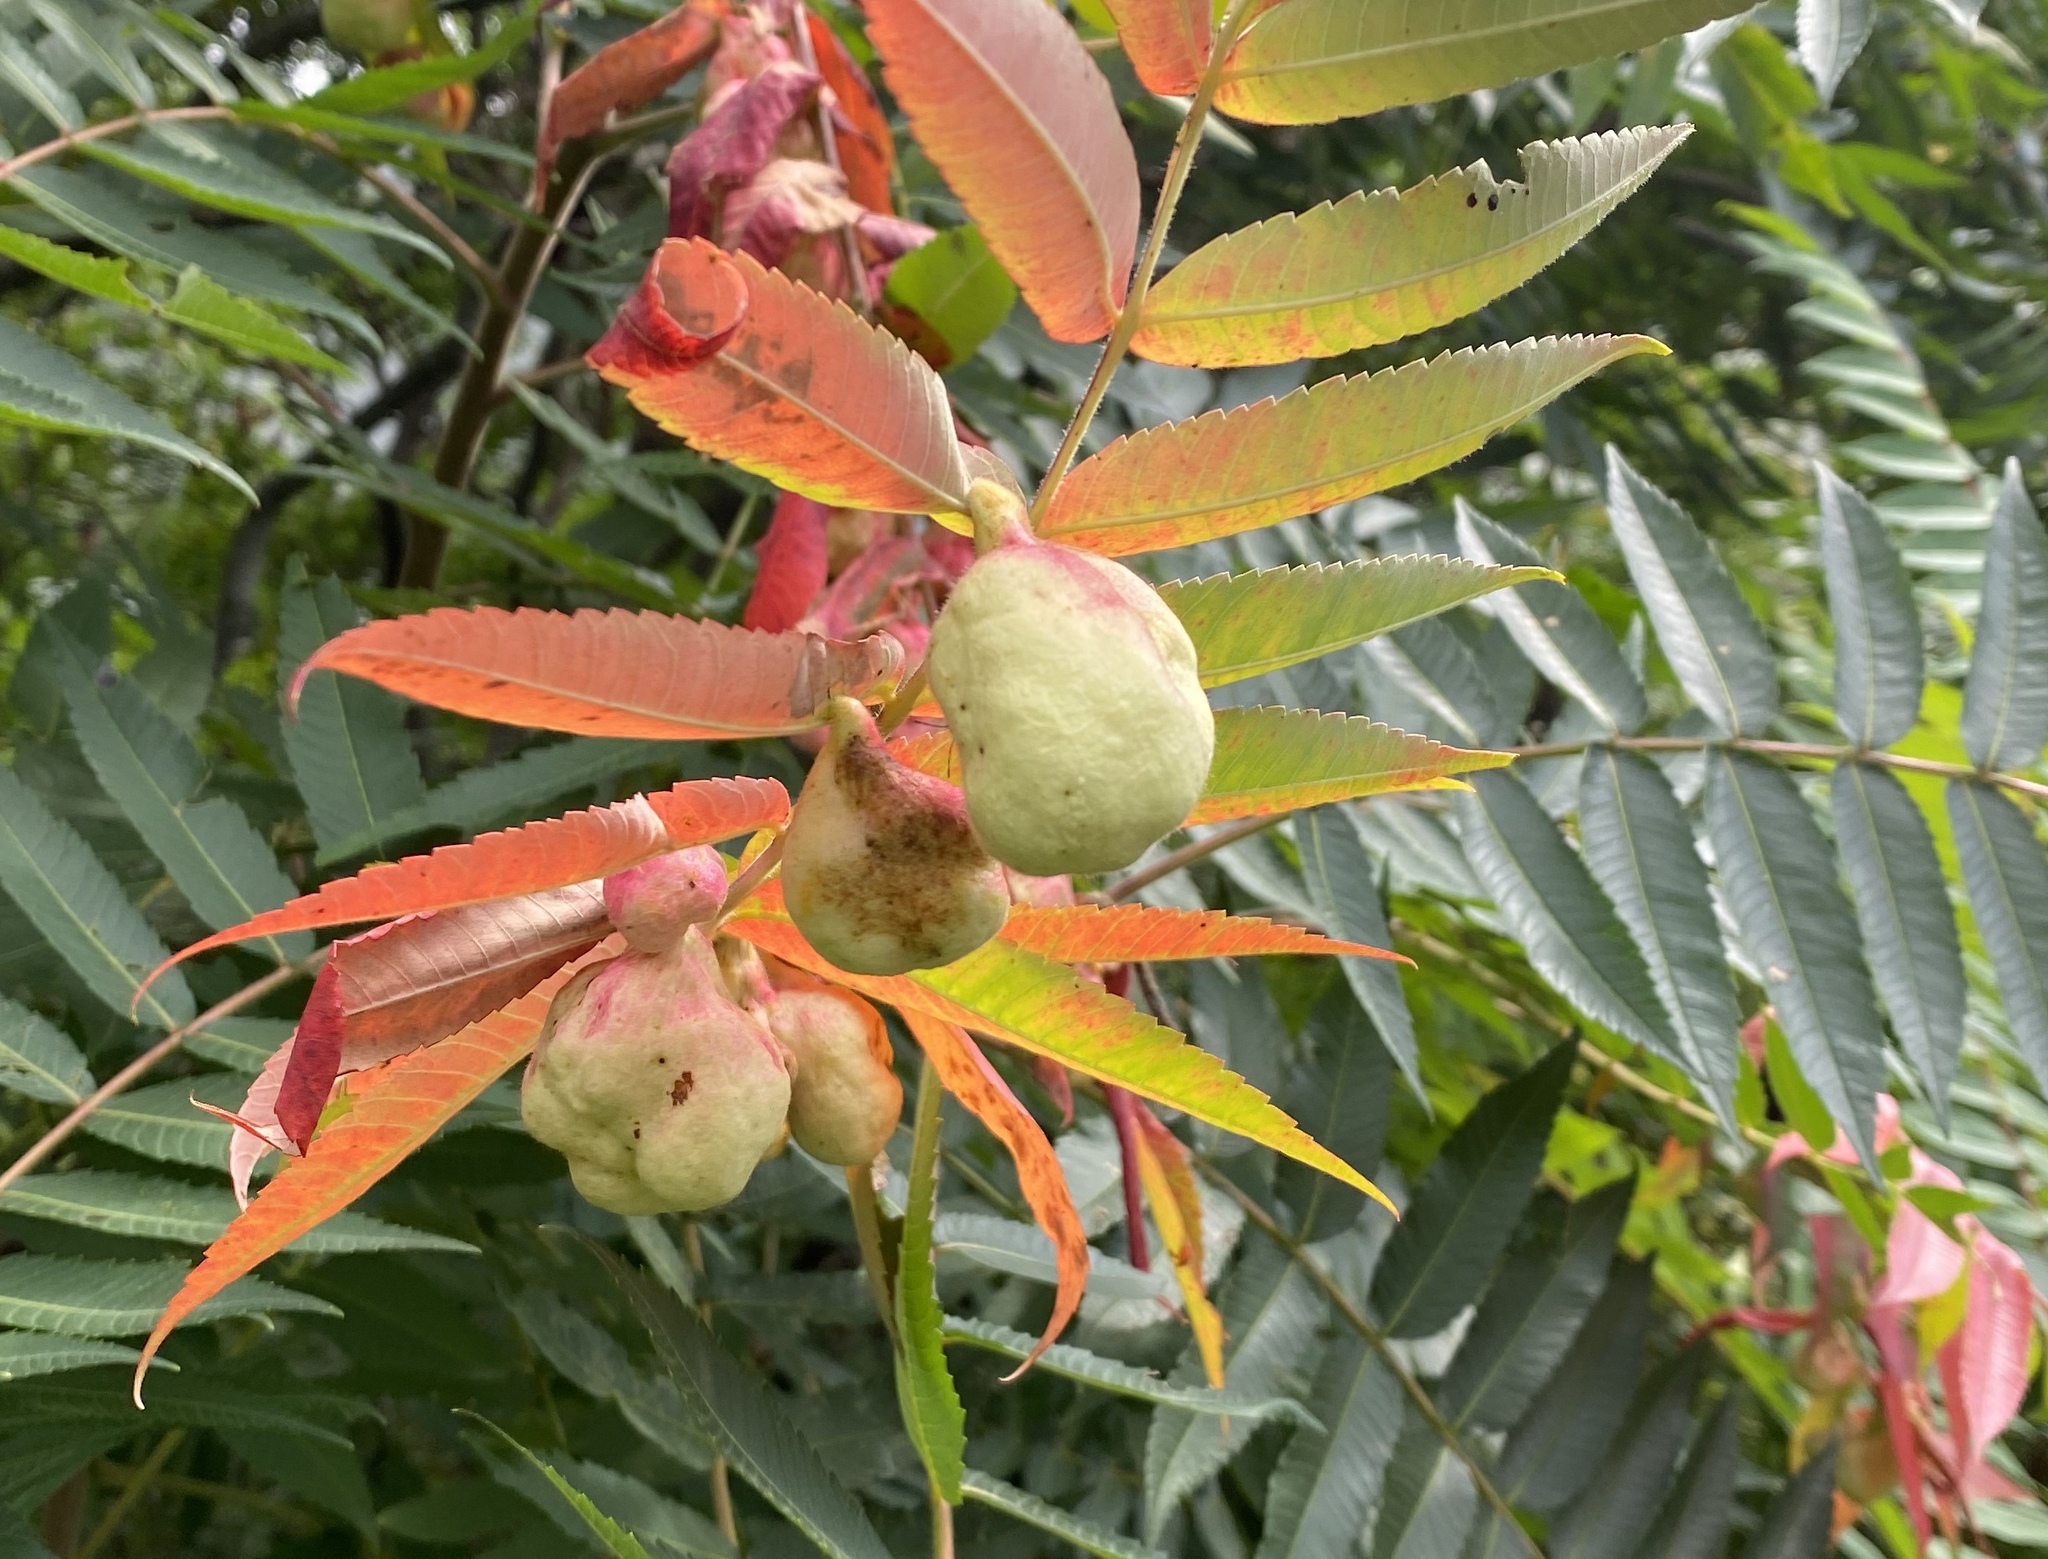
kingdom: Animalia
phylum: Arthropoda
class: Insecta
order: Hemiptera
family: Aphididae
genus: Melaphis
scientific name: Melaphis rhois
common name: Sumac gall aphid
